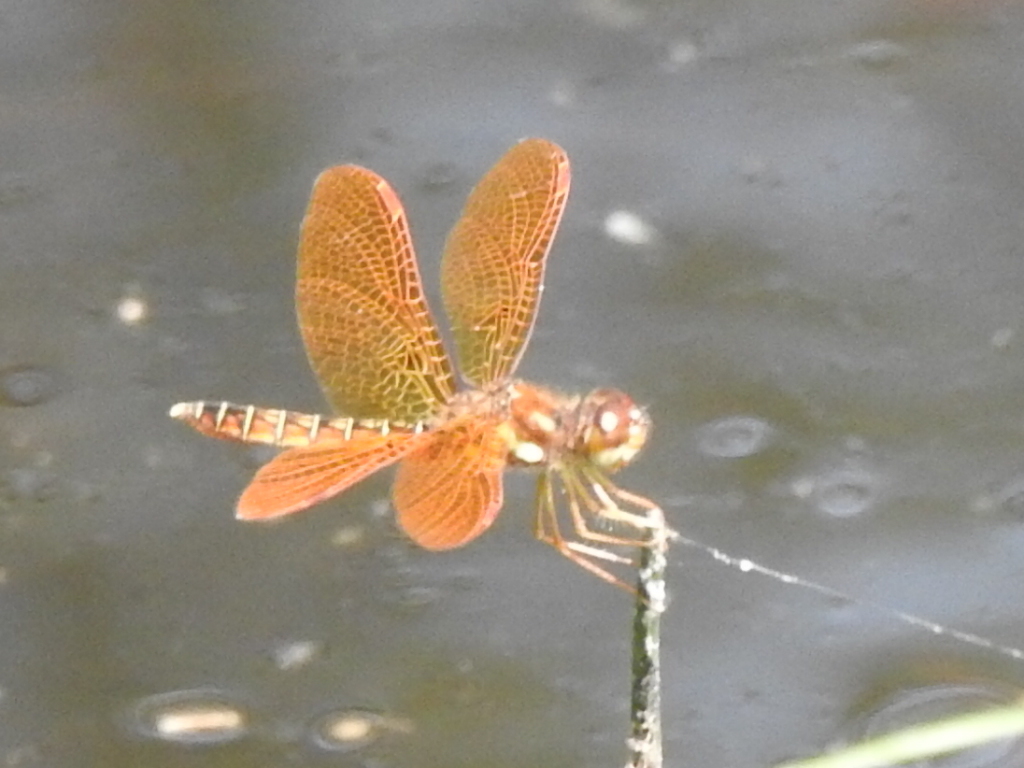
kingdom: Animalia
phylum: Arthropoda
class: Insecta
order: Odonata
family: Libellulidae
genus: Perithemis
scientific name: Perithemis tenera
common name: Eastern amberwing
